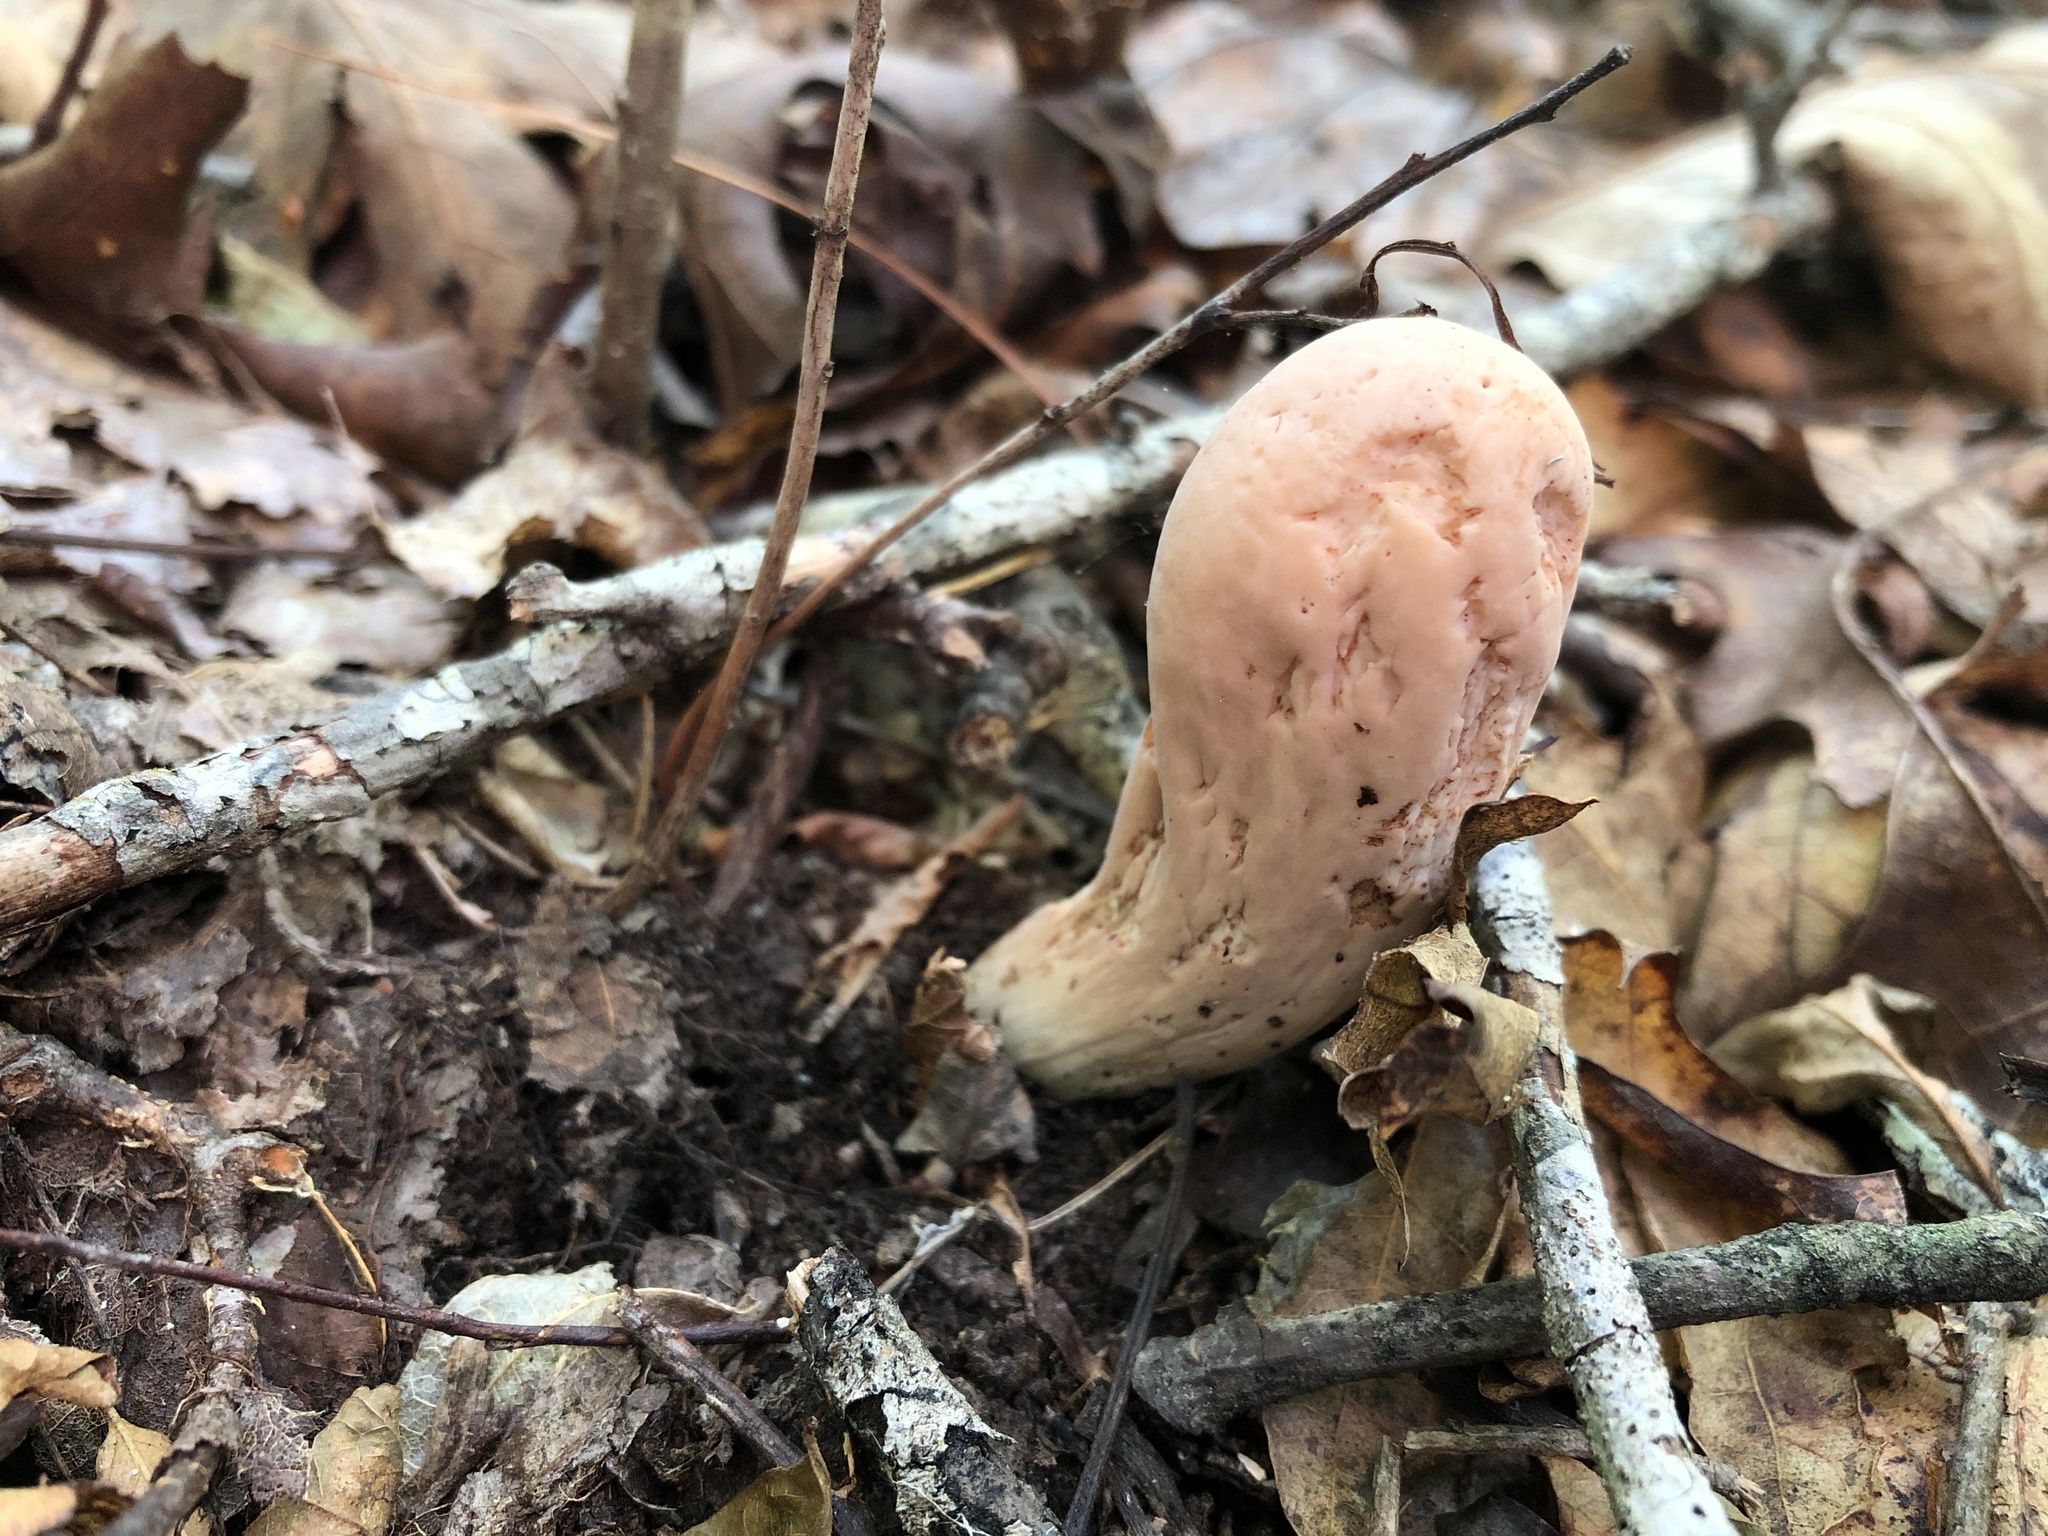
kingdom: Fungi
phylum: Basidiomycota
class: Agaricomycetes
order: Gomphales
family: Clavariadelphaceae
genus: Clavariadelphus
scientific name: Clavariadelphus americanus
